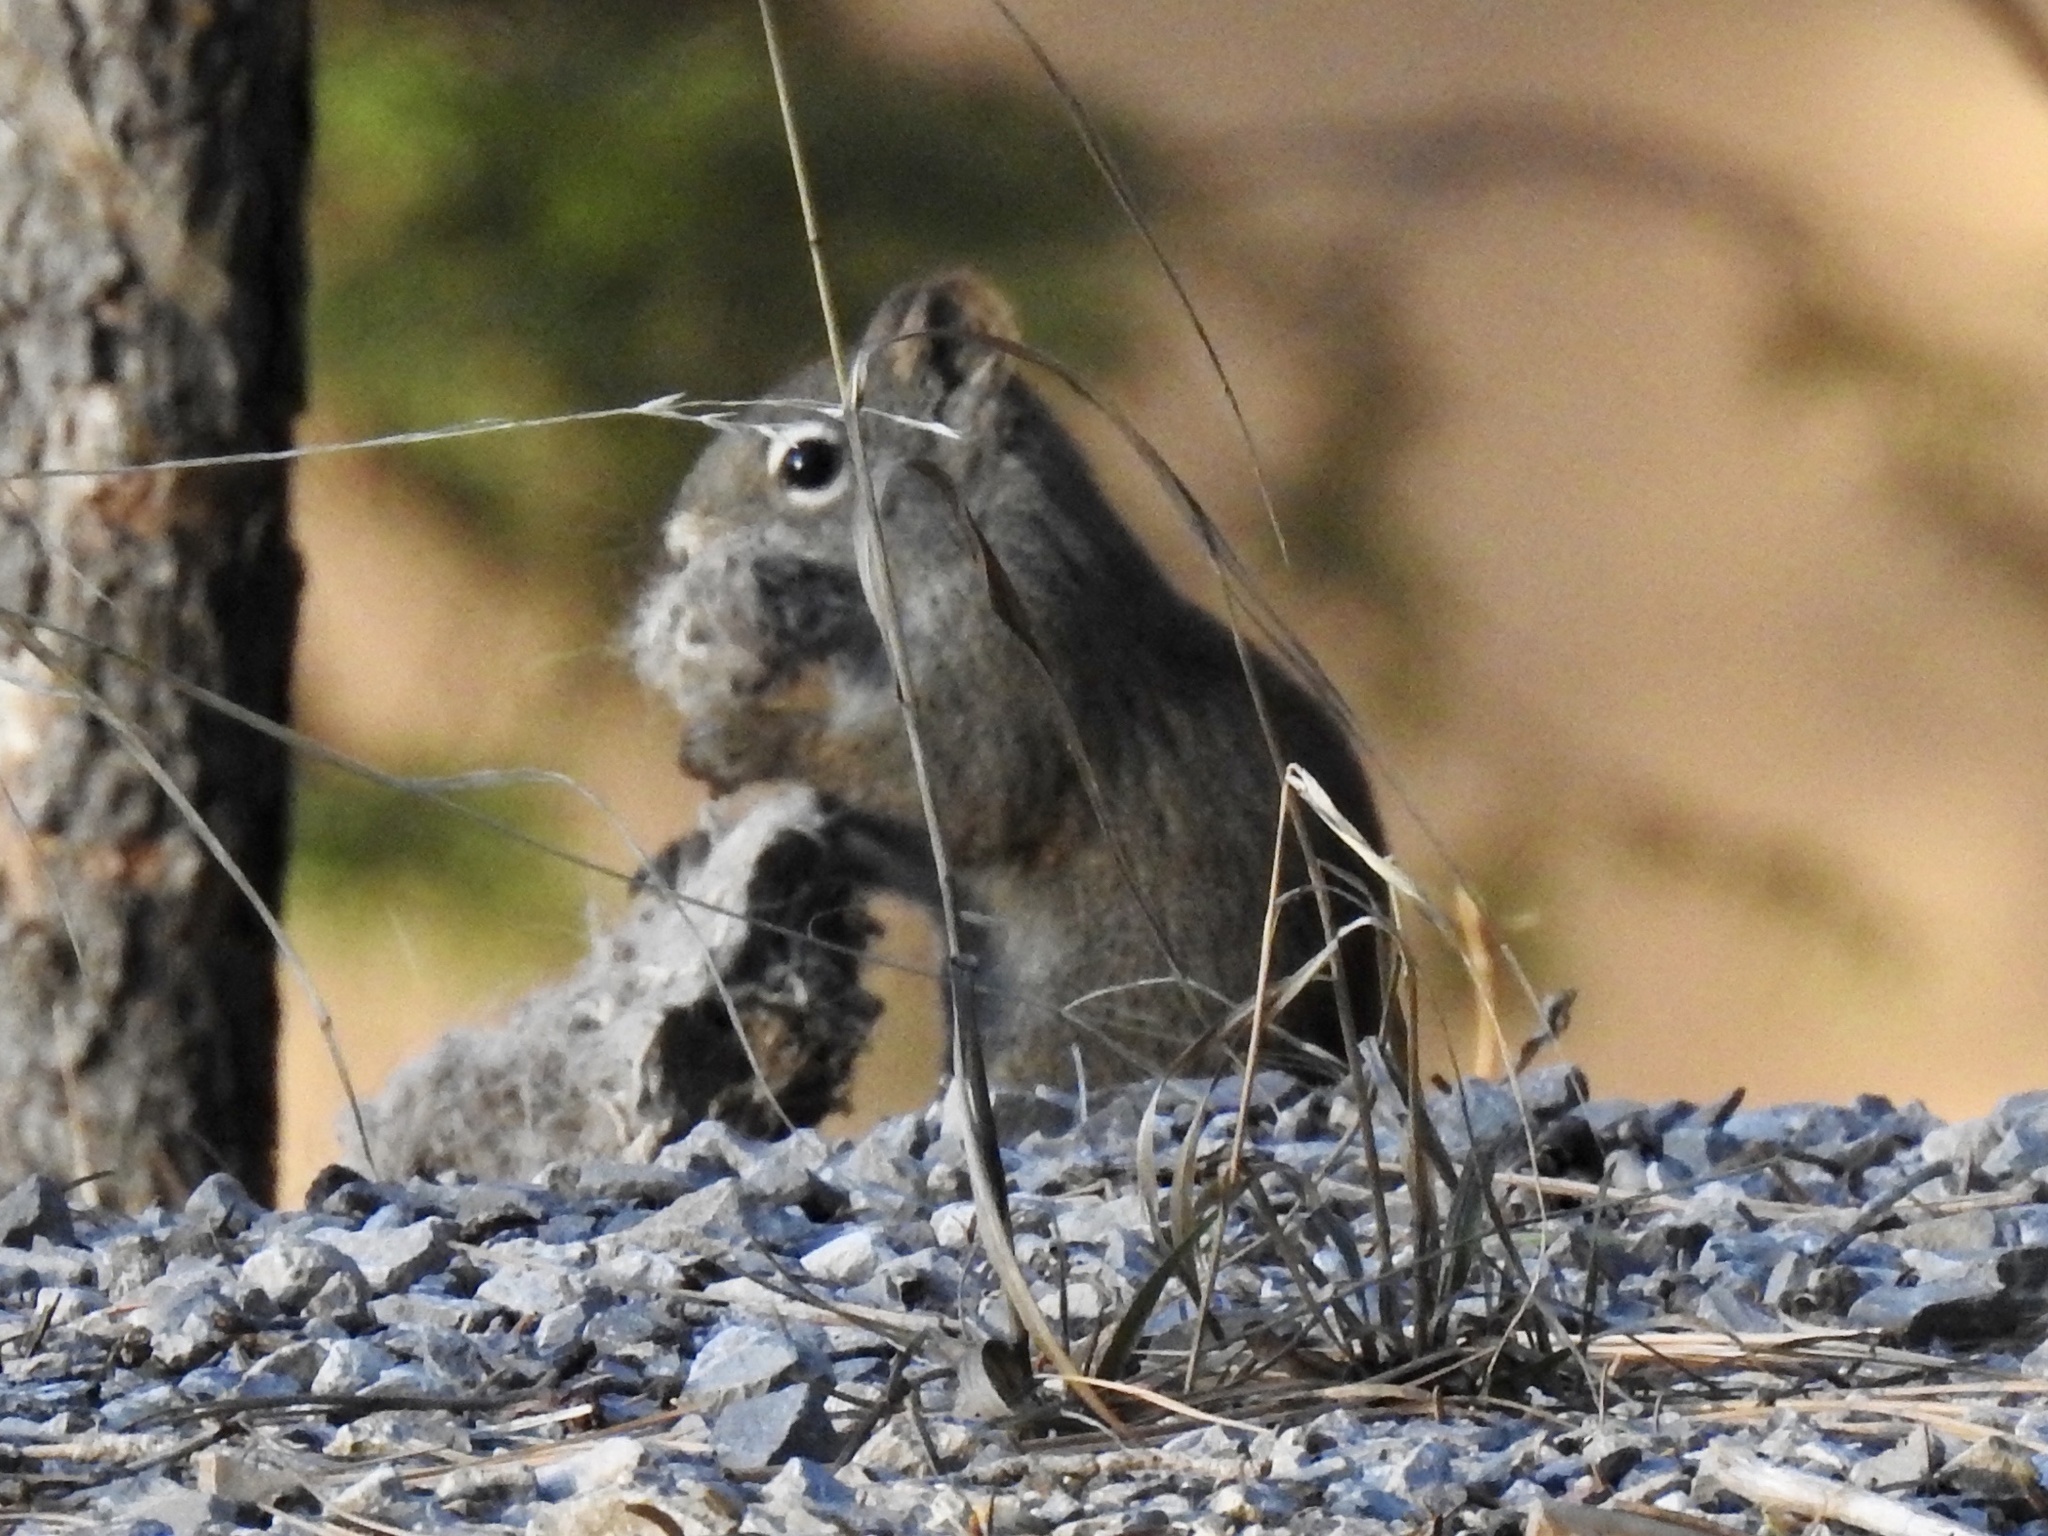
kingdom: Animalia
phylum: Chordata
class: Mammalia
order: Rodentia
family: Sciuridae
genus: Tamiasciurus
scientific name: Tamiasciurus hudsonicus
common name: Red squirrel
